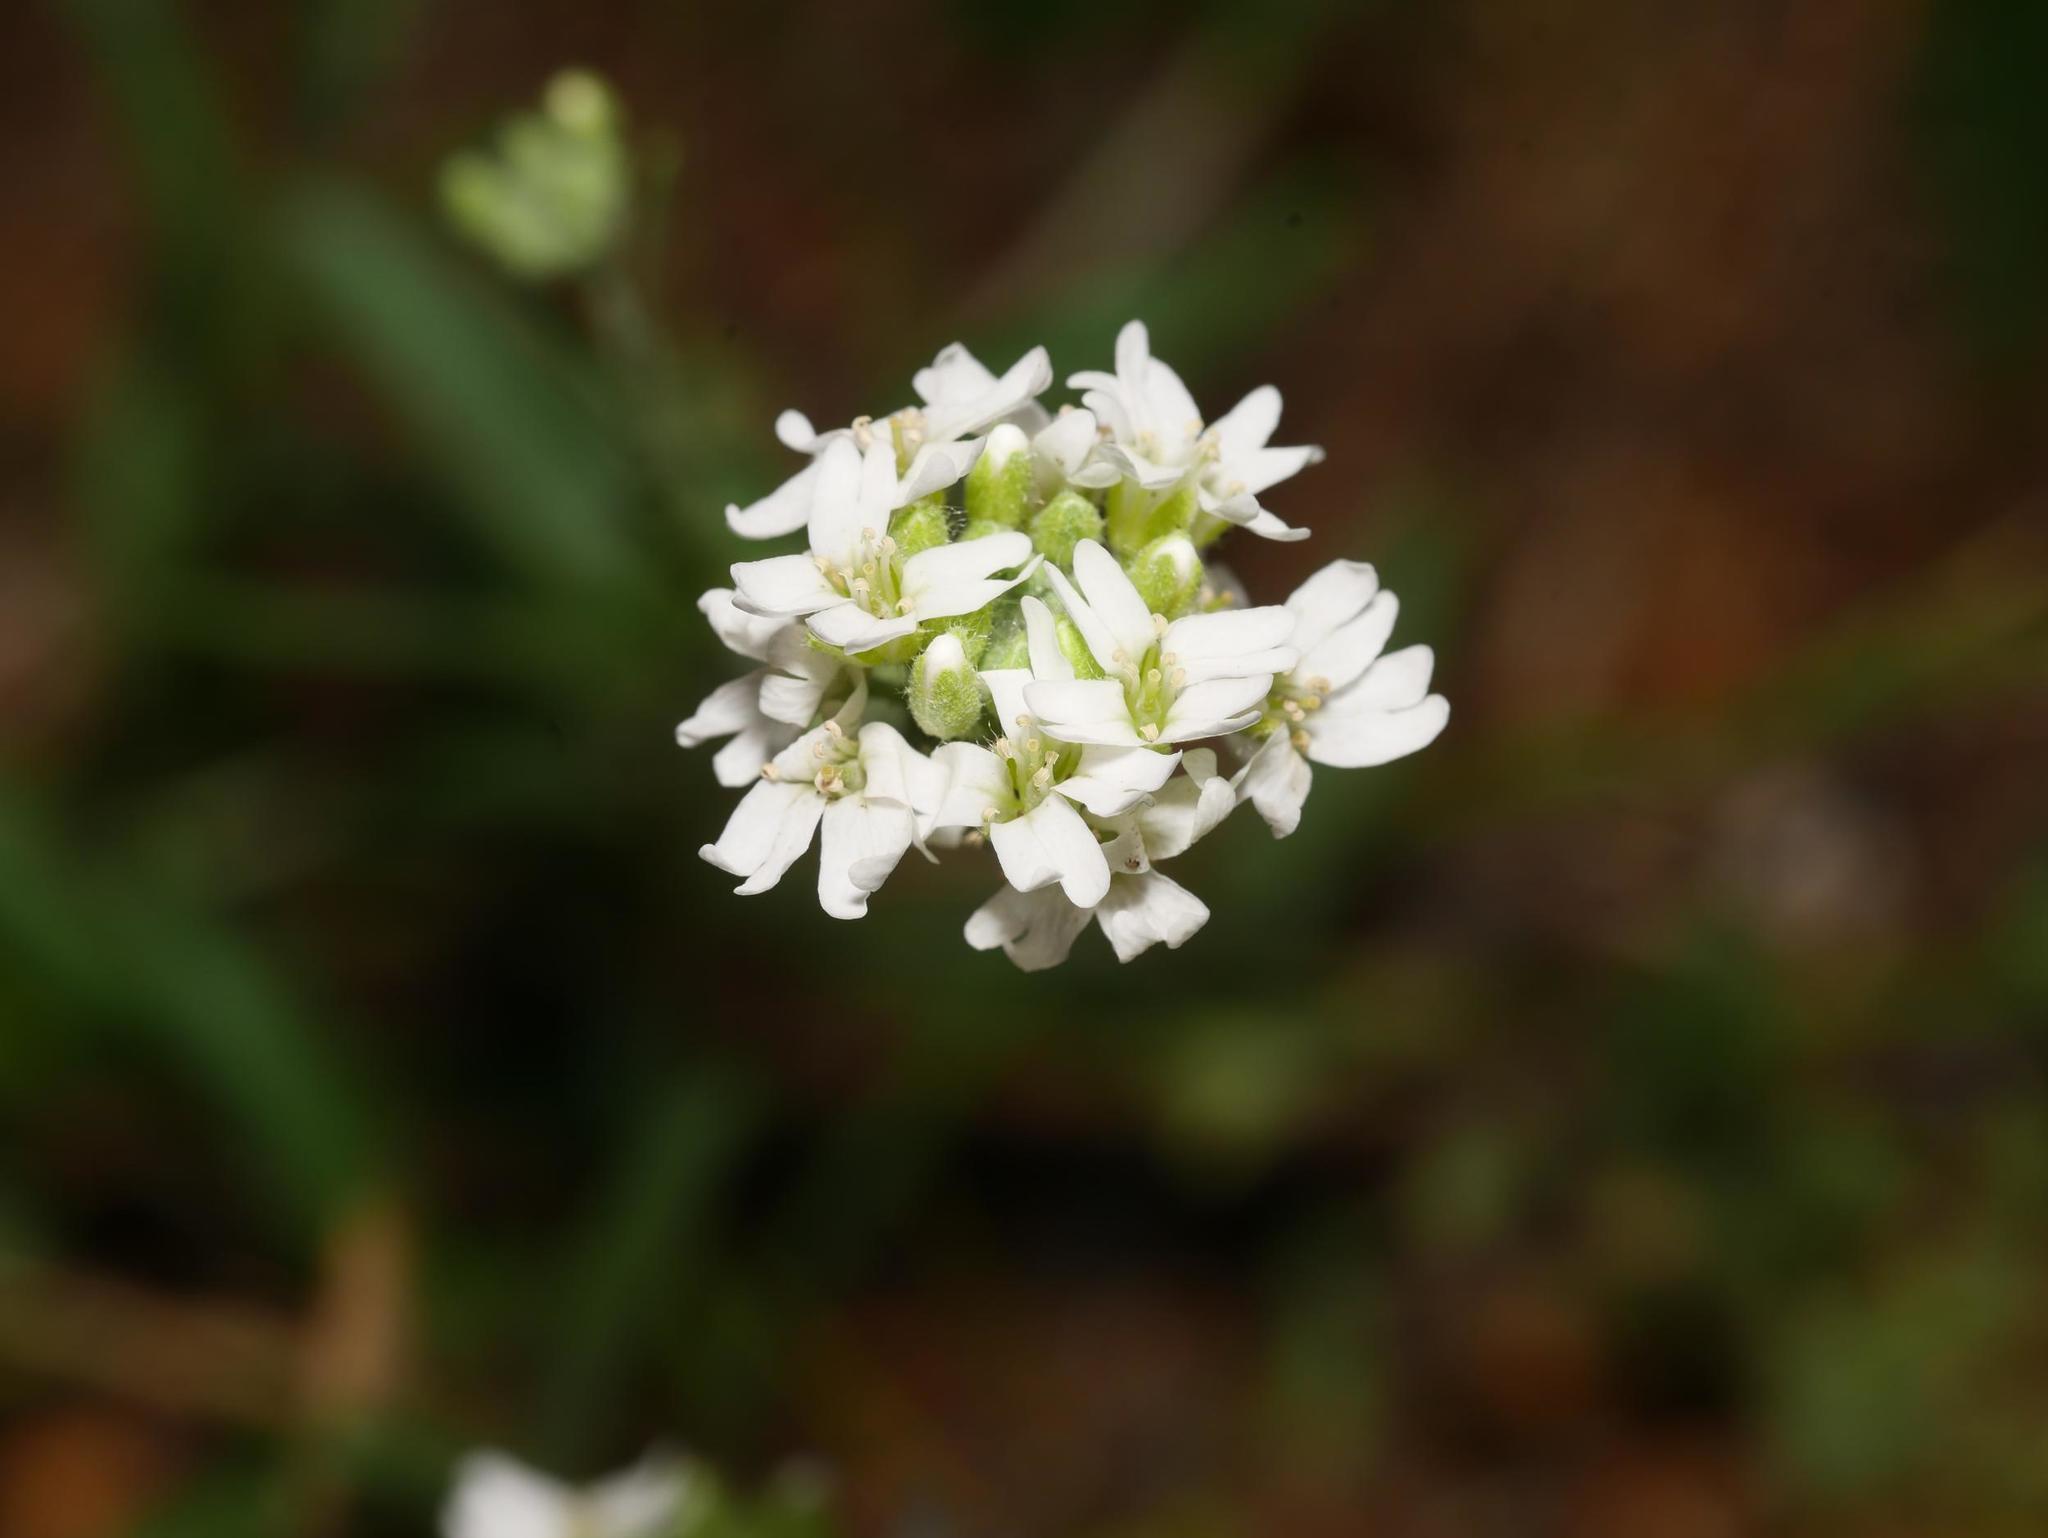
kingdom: Plantae
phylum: Tracheophyta
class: Magnoliopsida
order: Brassicales
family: Brassicaceae
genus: Berteroa
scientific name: Berteroa incana
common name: Hoary alison
